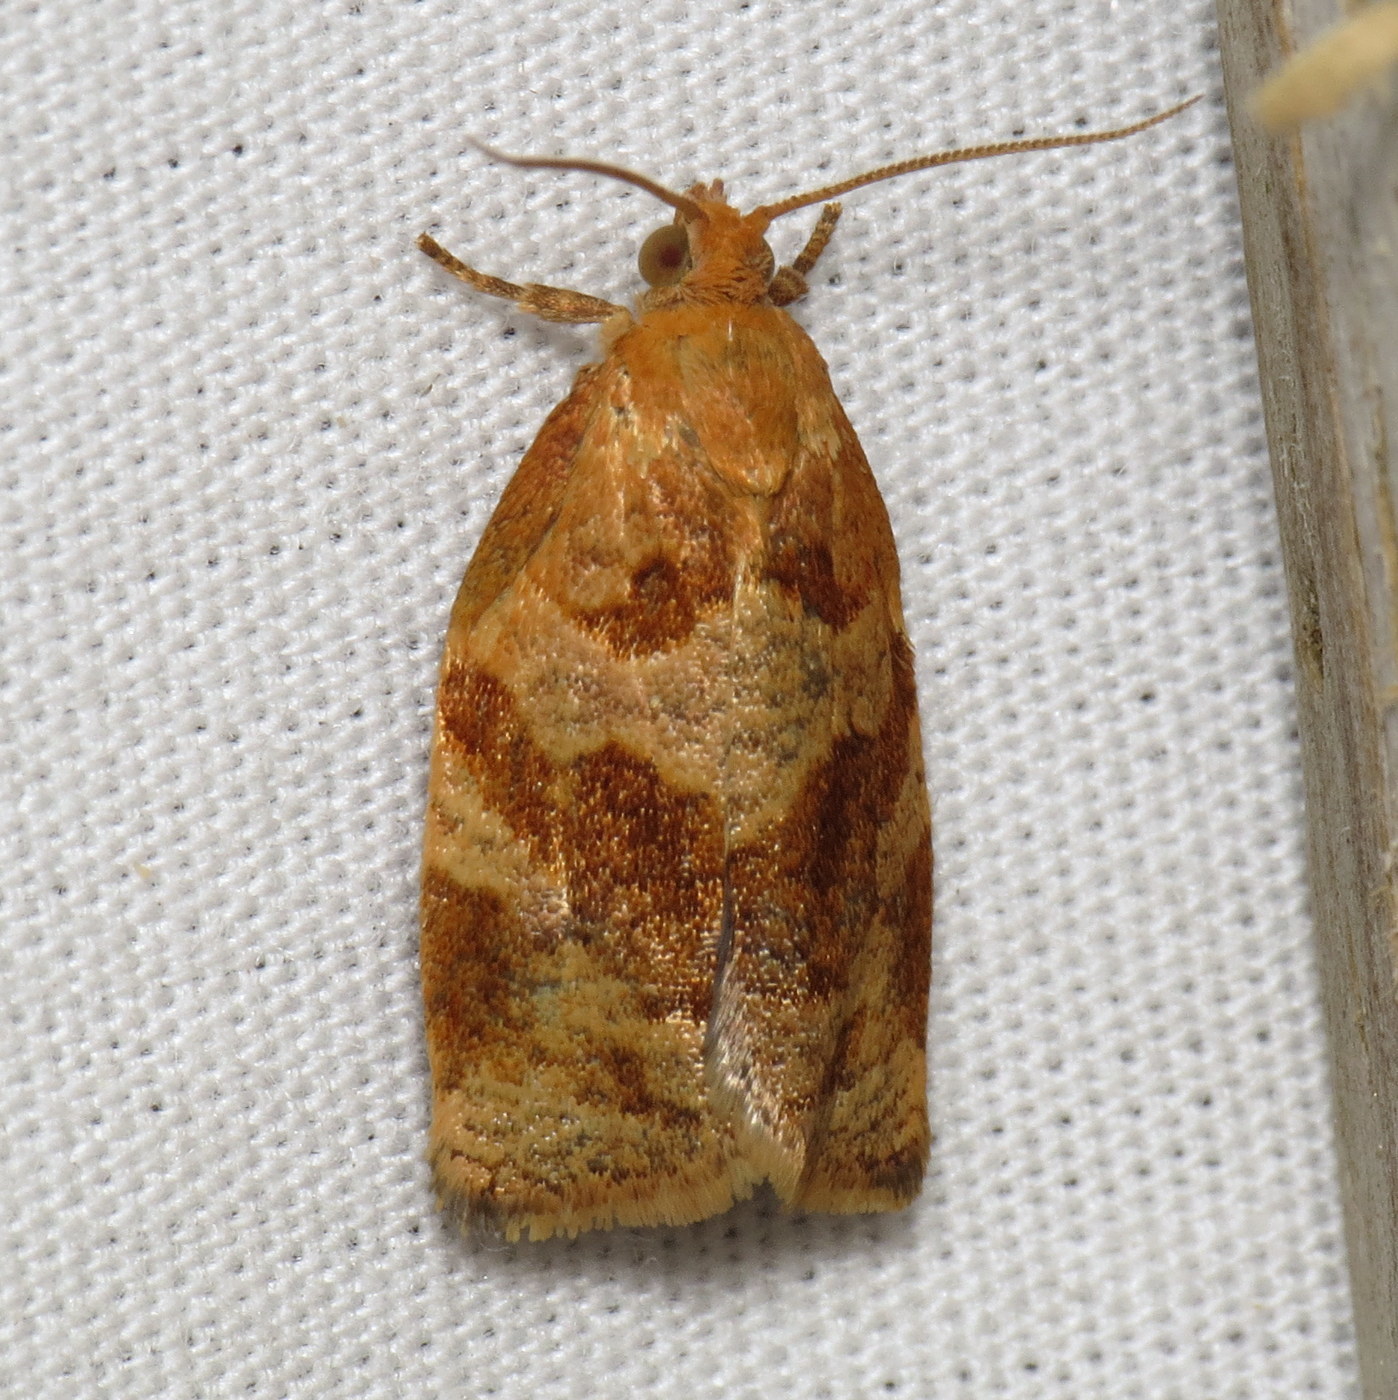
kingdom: Animalia
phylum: Arthropoda
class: Insecta
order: Lepidoptera
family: Tortricidae
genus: Archips
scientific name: Archips rosana
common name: Rose tortrix
